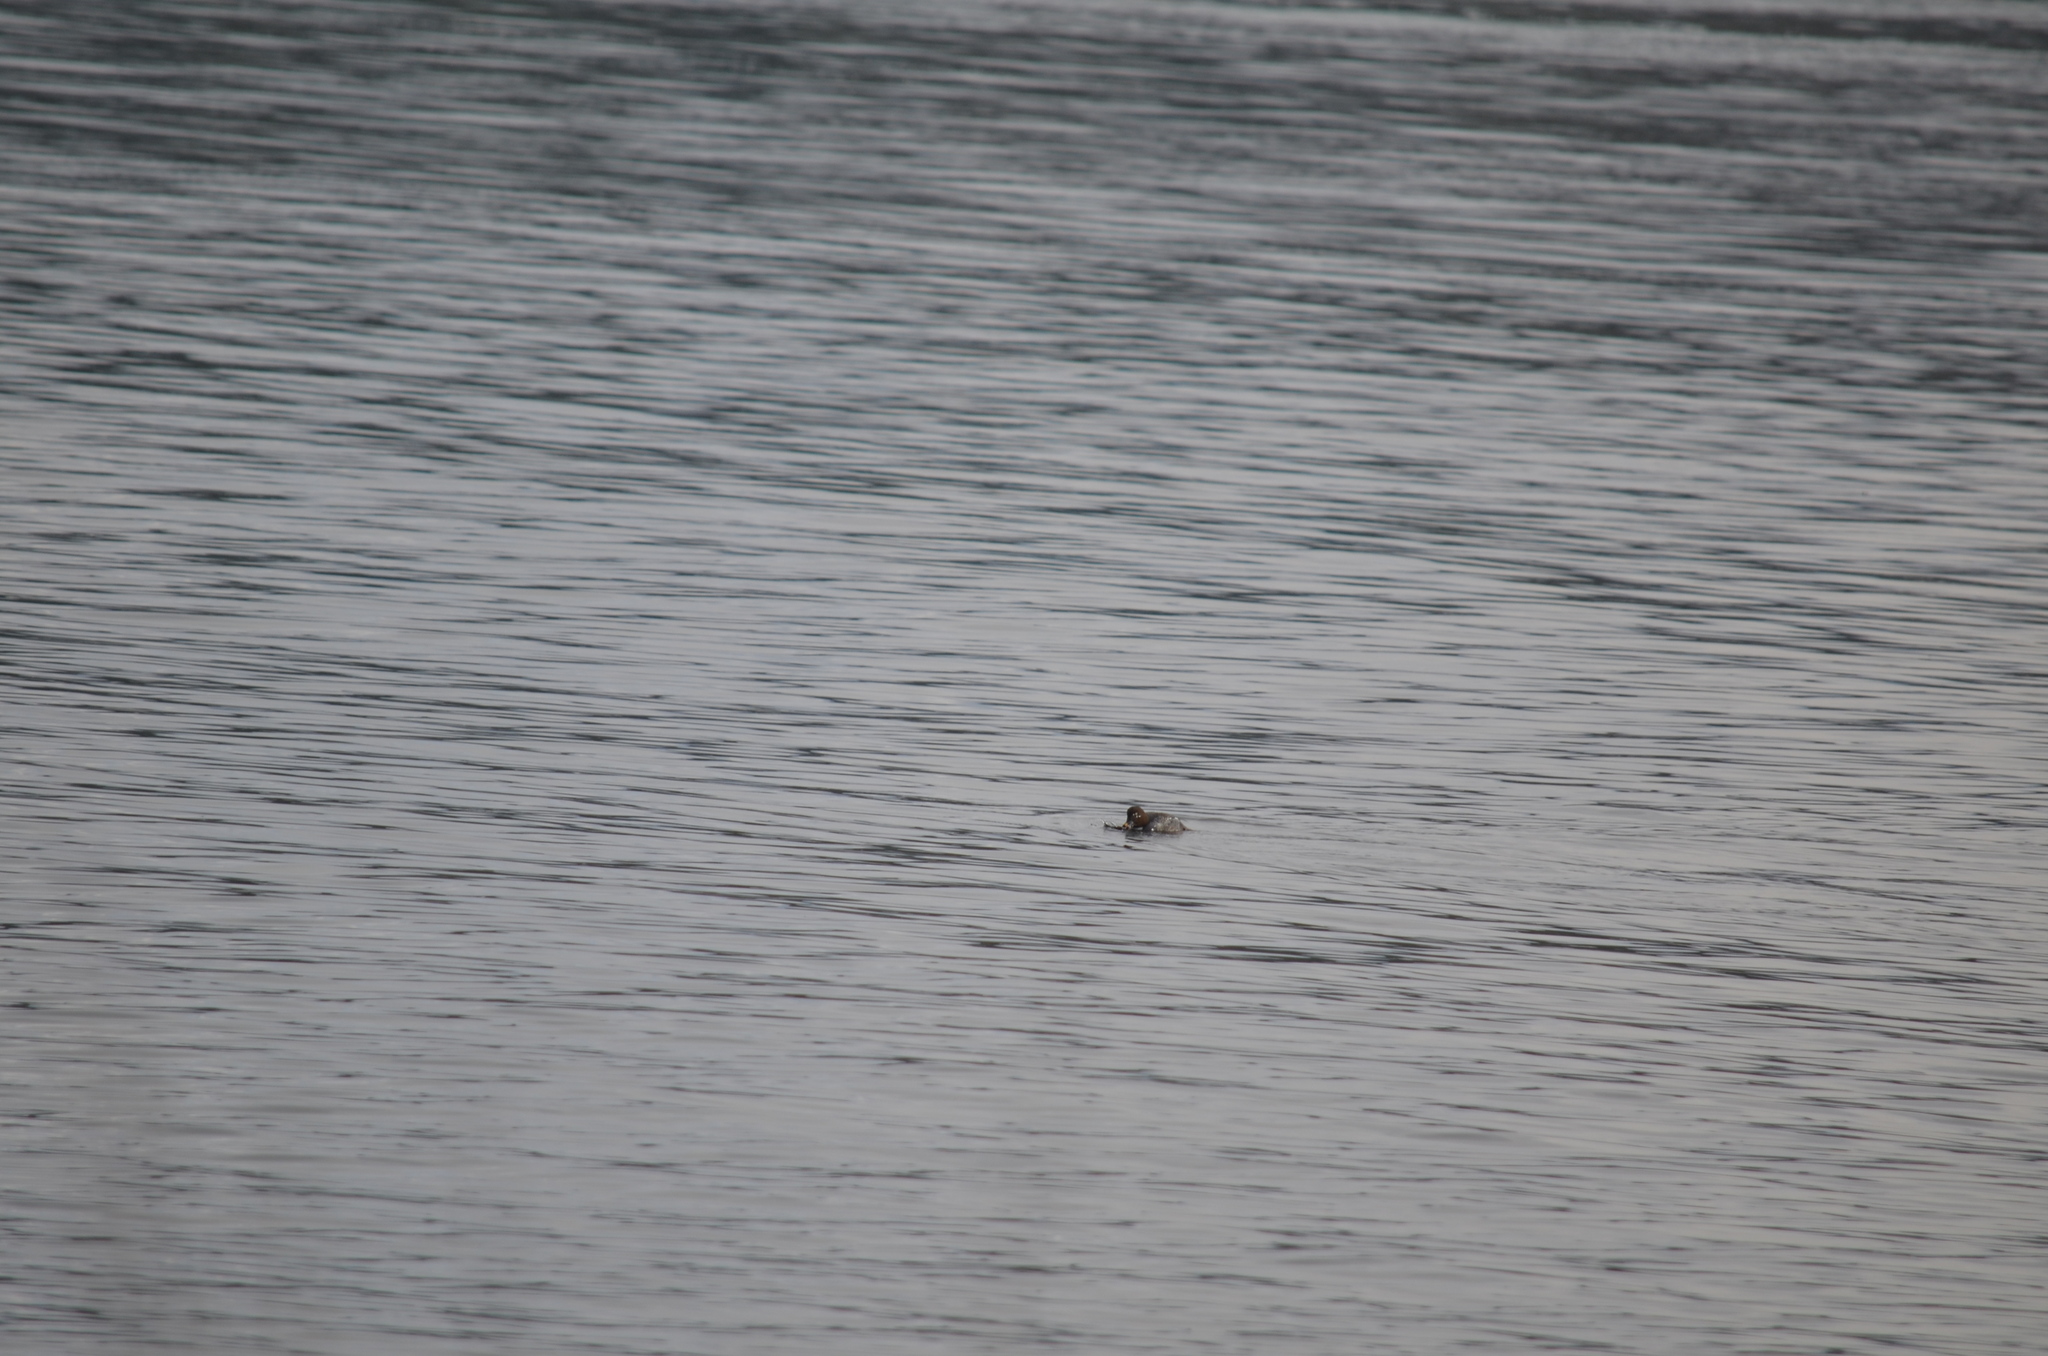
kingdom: Animalia
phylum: Chordata
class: Aves
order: Anseriformes
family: Anatidae
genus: Bucephala
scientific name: Bucephala clangula
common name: Common goldeneye
